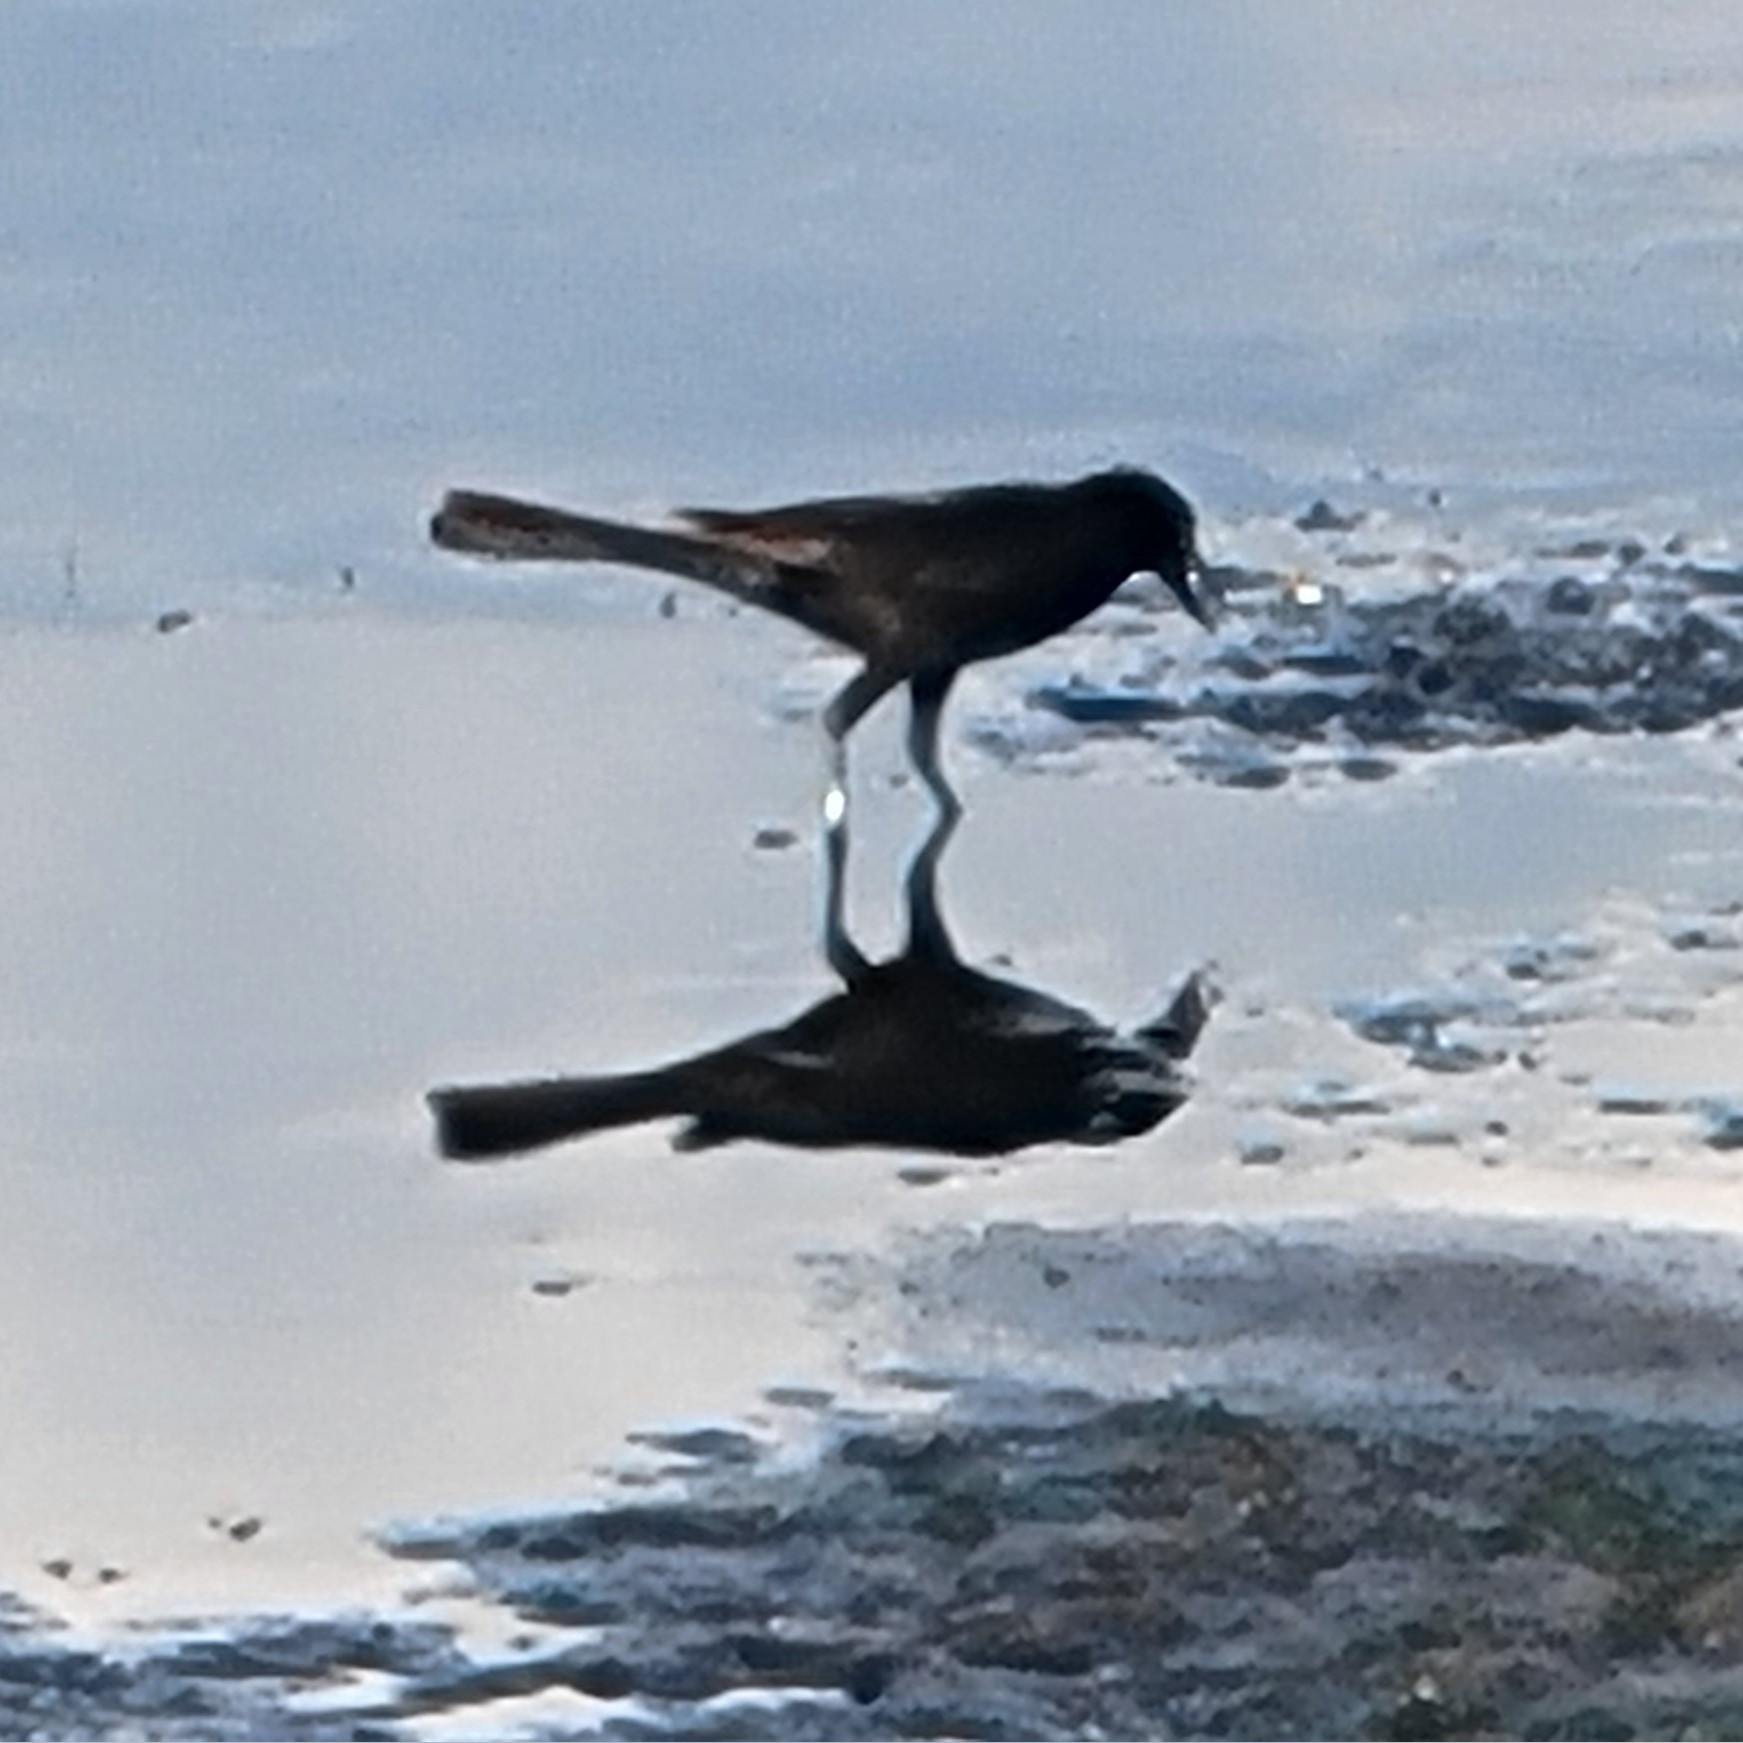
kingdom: Animalia
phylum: Chordata
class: Aves
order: Passeriformes
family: Icteridae
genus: Quiscalus
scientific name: Quiscalus major
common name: Boat-tailed grackle
